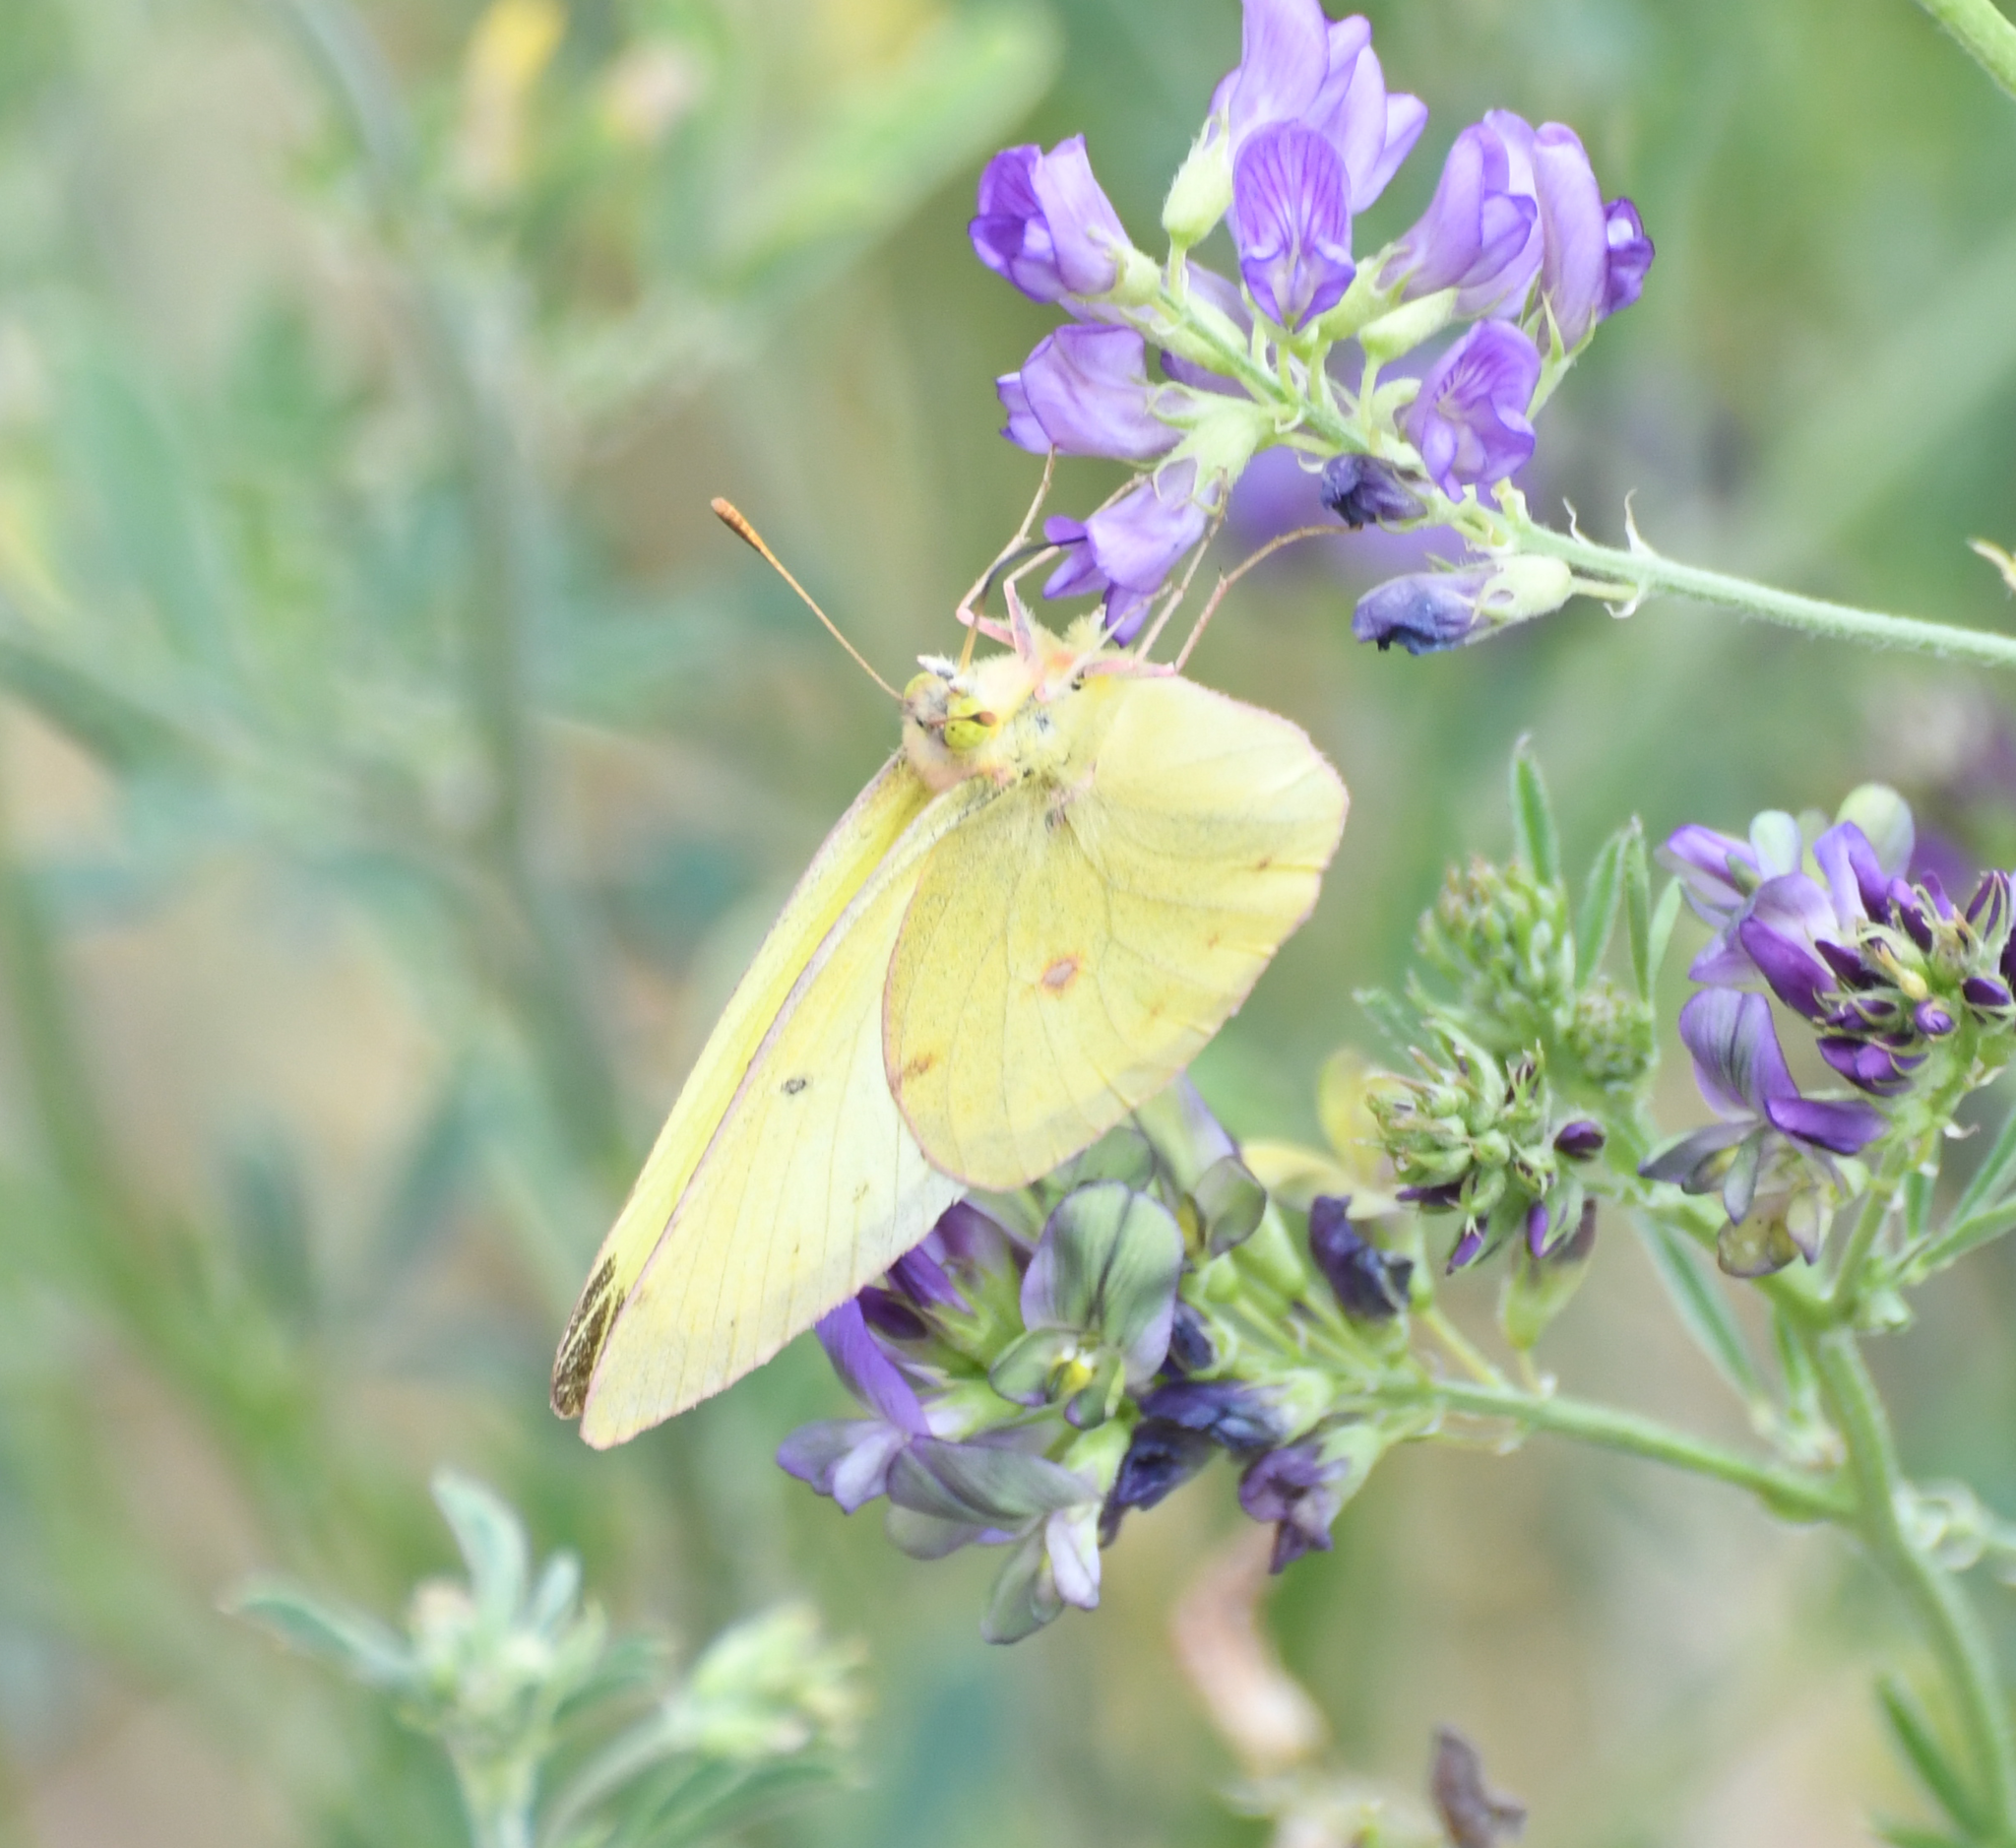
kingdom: Animalia
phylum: Arthropoda
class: Insecta
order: Lepidoptera
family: Pieridae
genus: Colias
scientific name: Colias philodice
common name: Clouded sulphur
